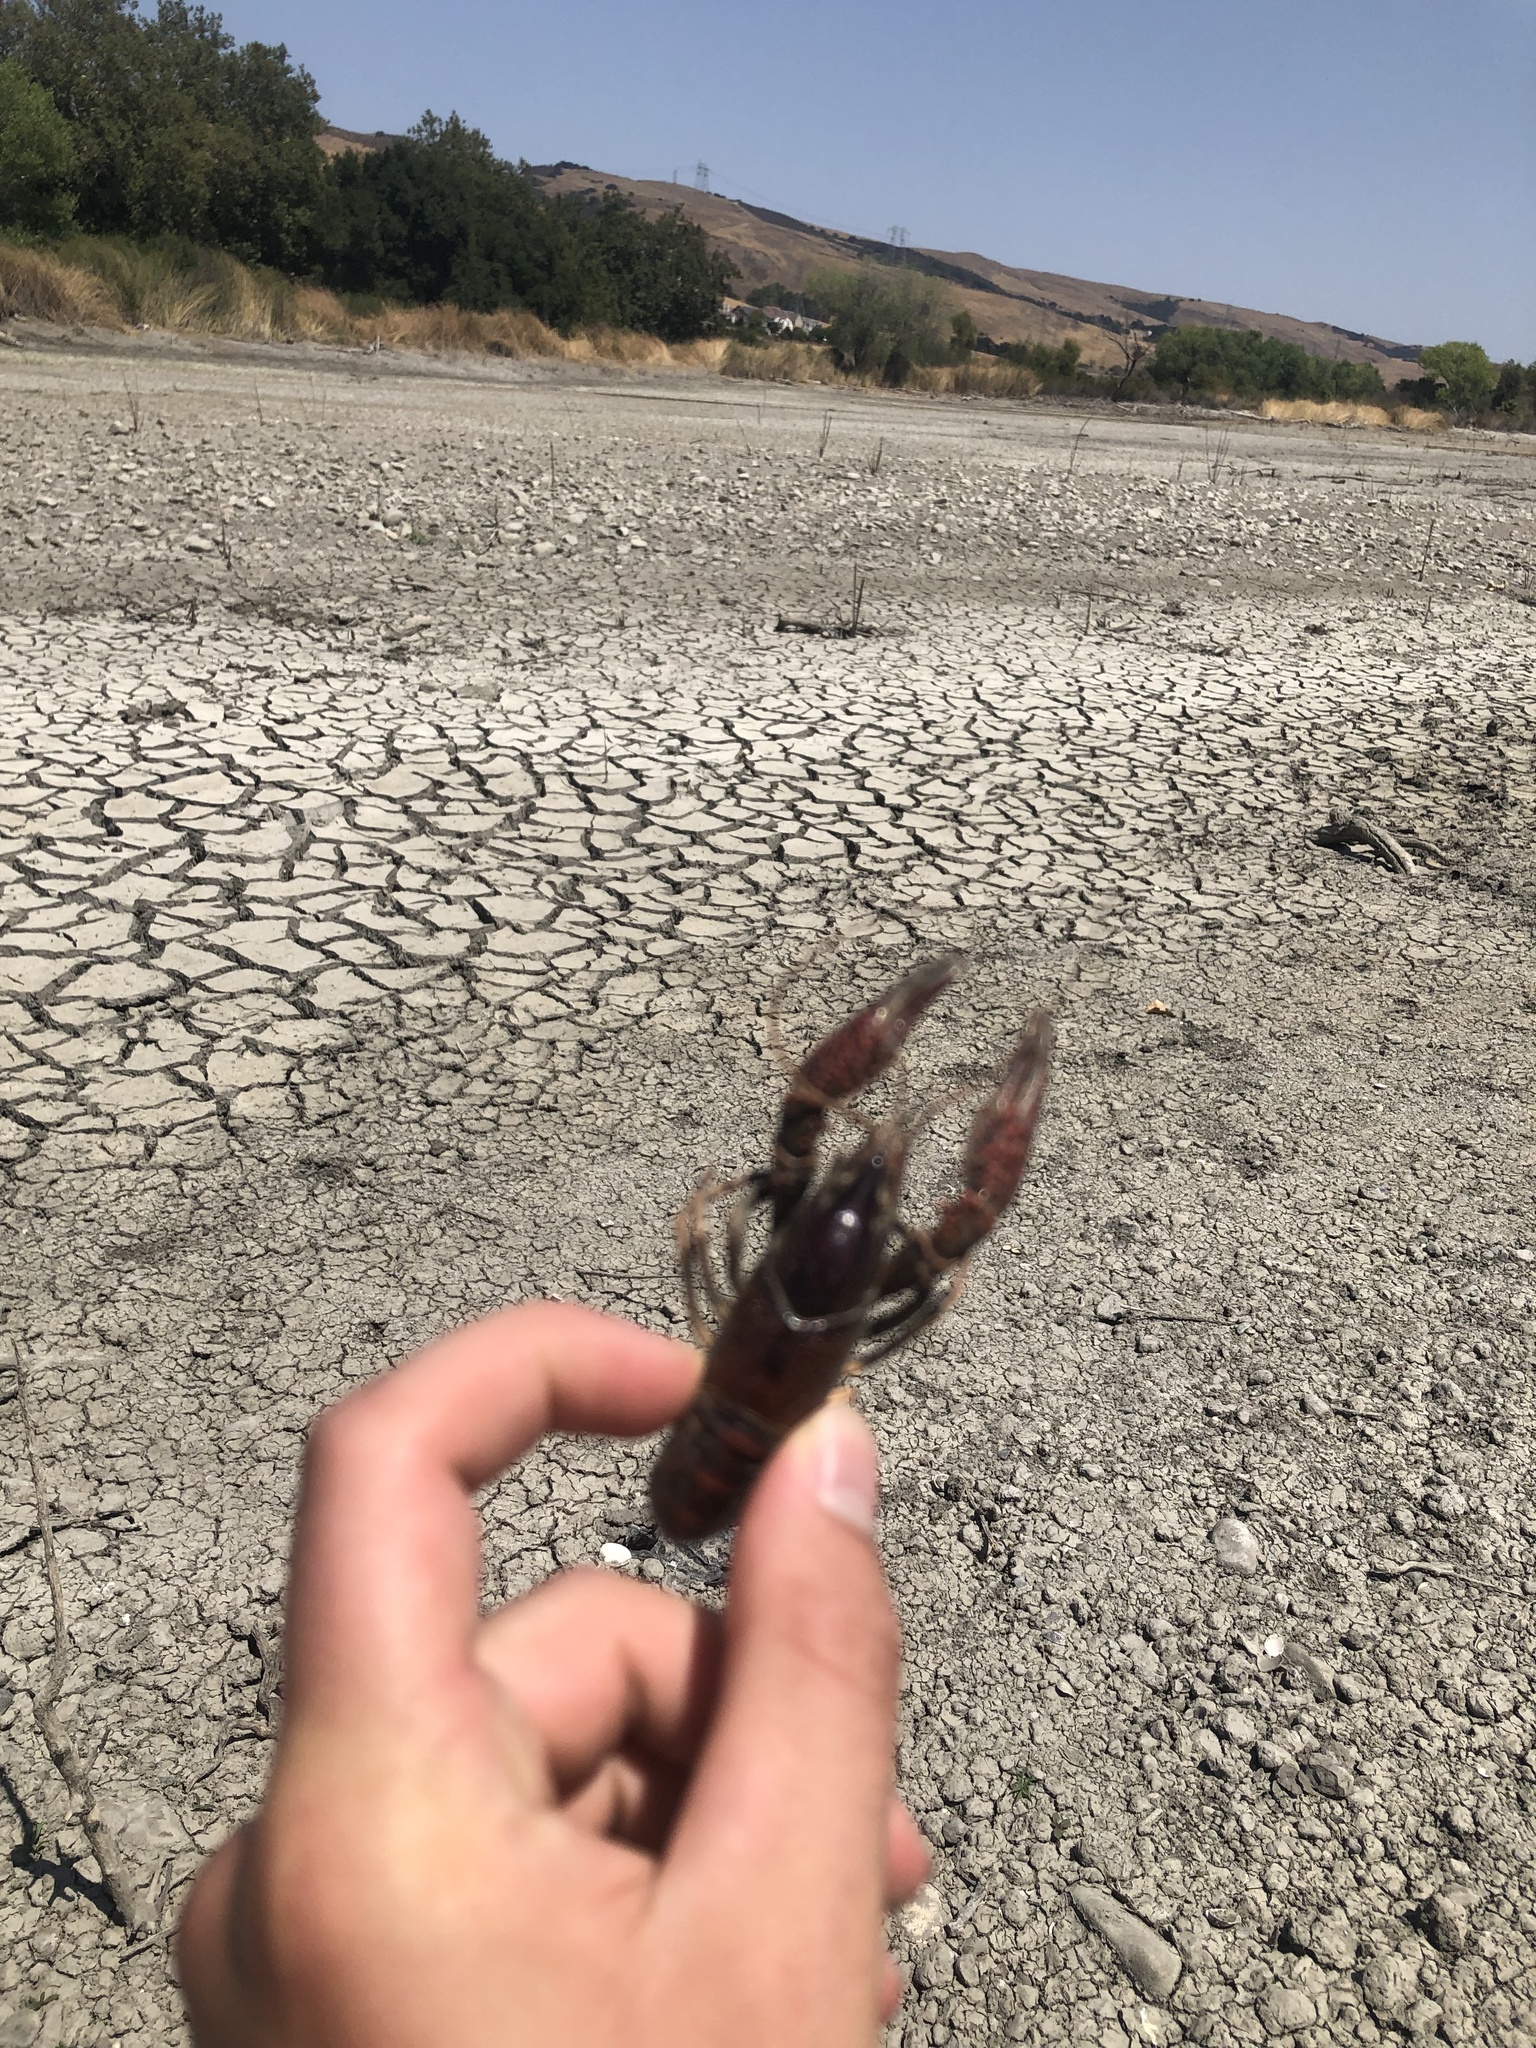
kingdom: Animalia
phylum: Arthropoda
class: Malacostraca
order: Decapoda
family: Cambaridae
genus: Procambarus
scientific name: Procambarus clarkii
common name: Red swamp crayfish
